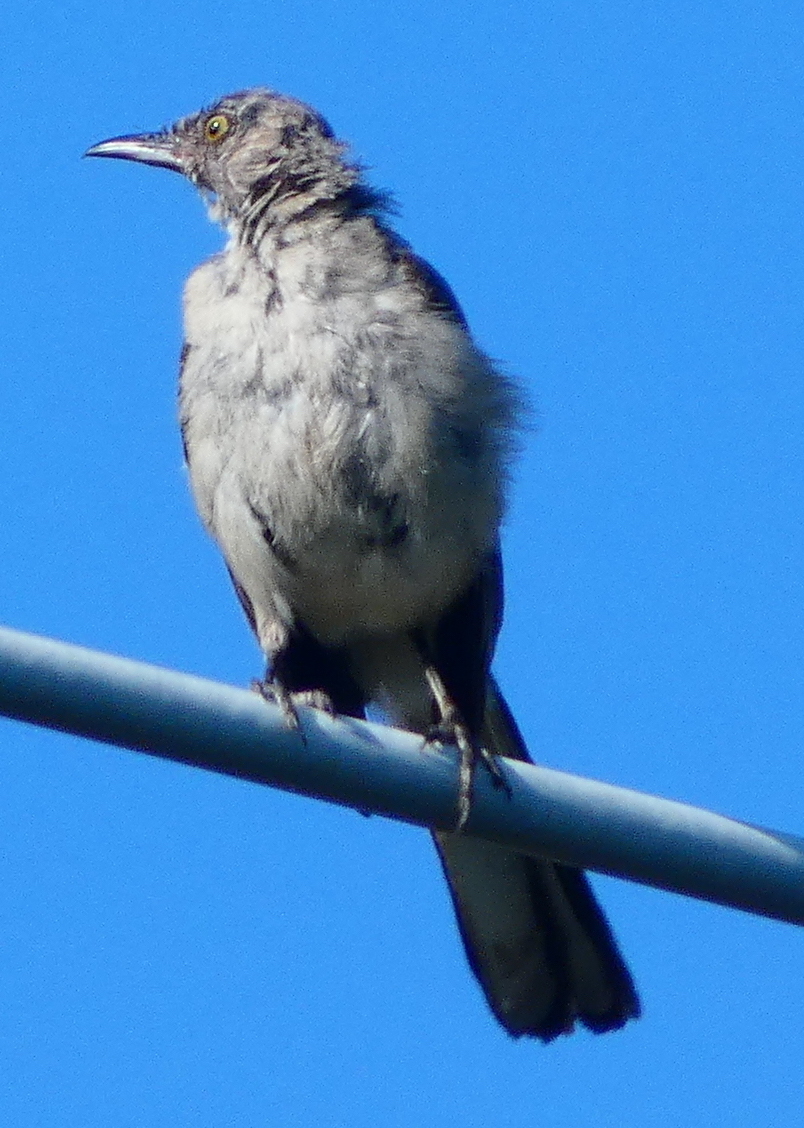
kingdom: Animalia
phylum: Chordata
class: Aves
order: Passeriformes
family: Mimidae
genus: Mimus
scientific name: Mimus polyglottos
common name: Northern mockingbird
